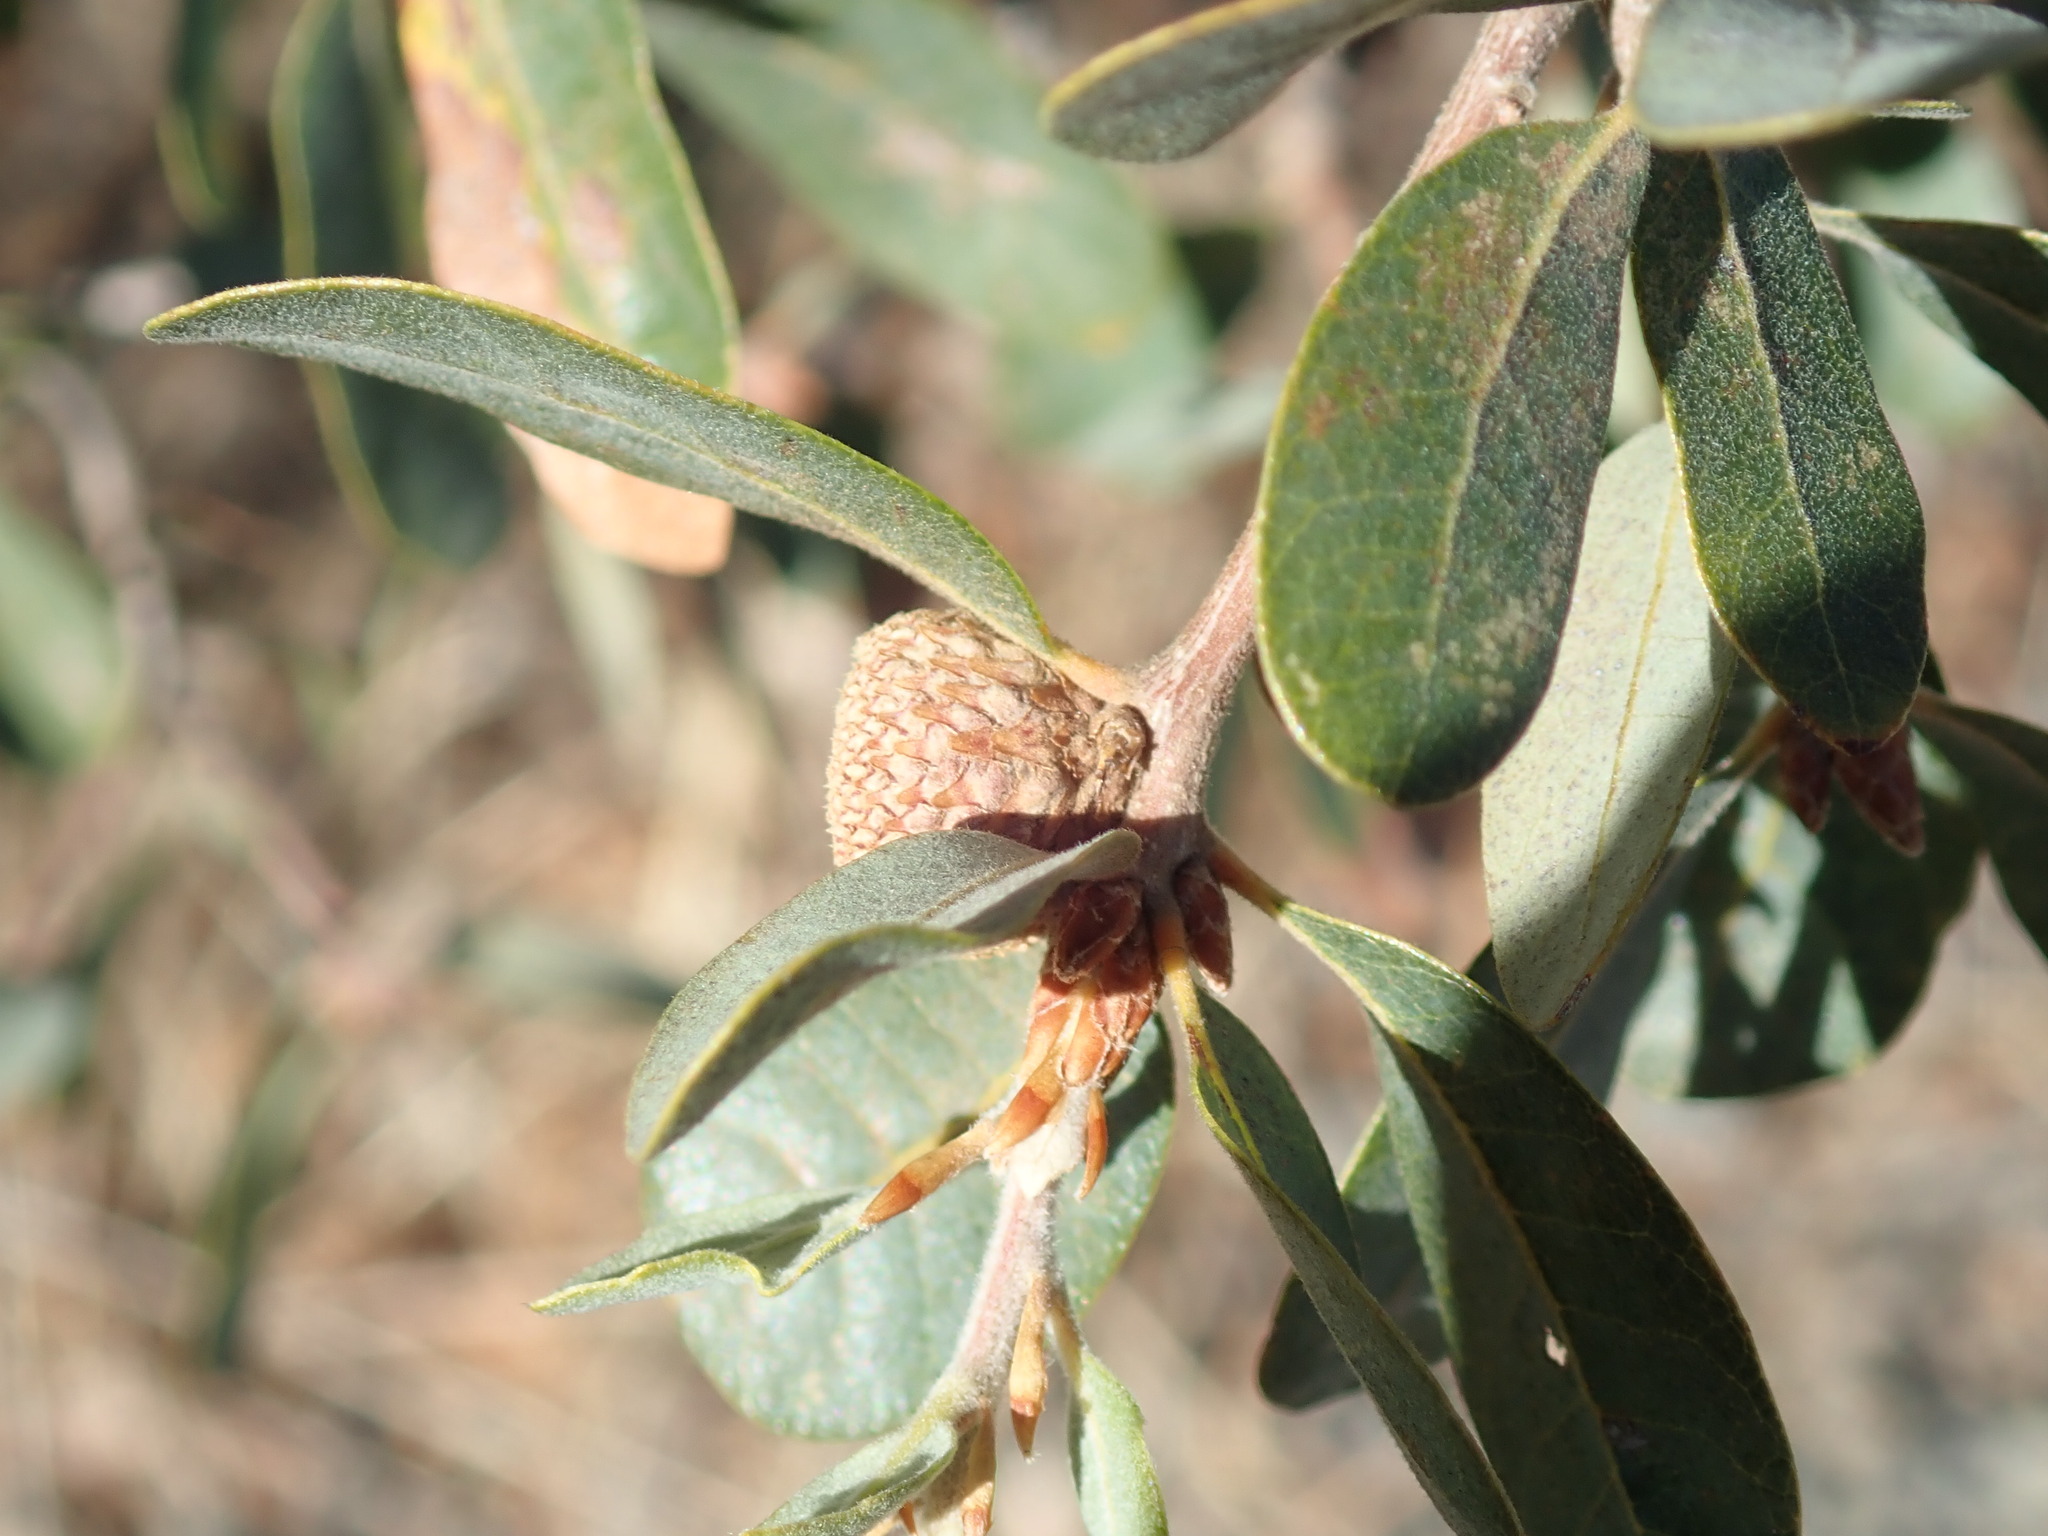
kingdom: Plantae
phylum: Tracheophyta
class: Magnoliopsida
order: Fagales
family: Fagaceae
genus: Quercus
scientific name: Quercus douglasii
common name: Blue oak
